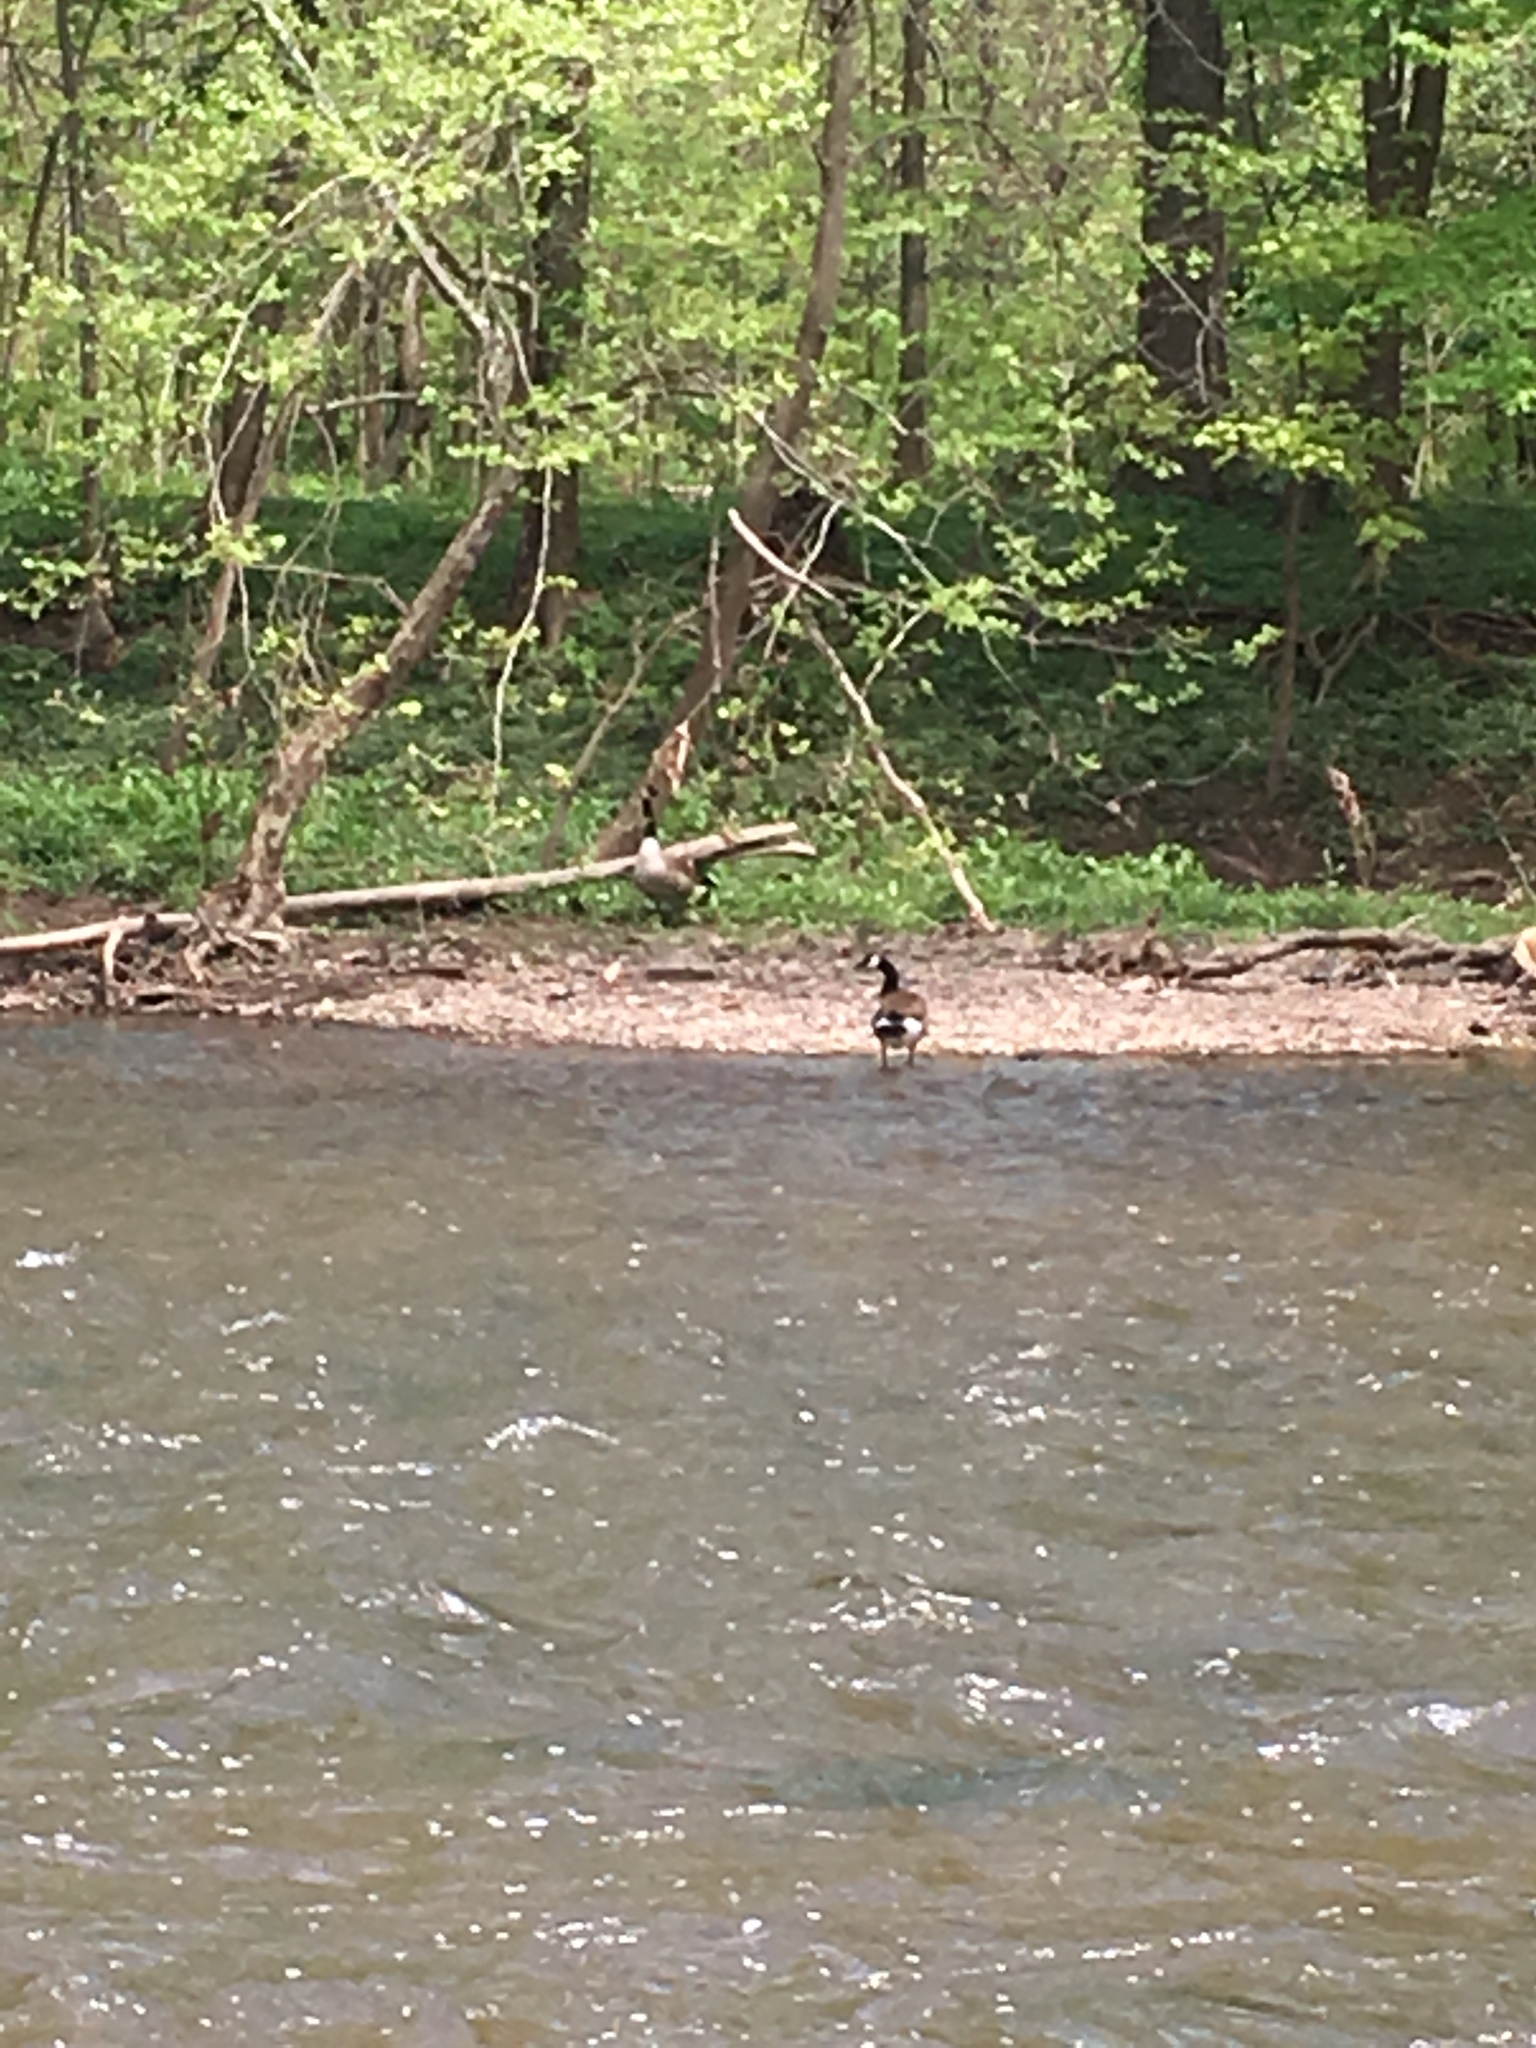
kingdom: Animalia
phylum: Chordata
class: Aves
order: Anseriformes
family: Anatidae
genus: Branta
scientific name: Branta canadensis
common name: Canada goose
